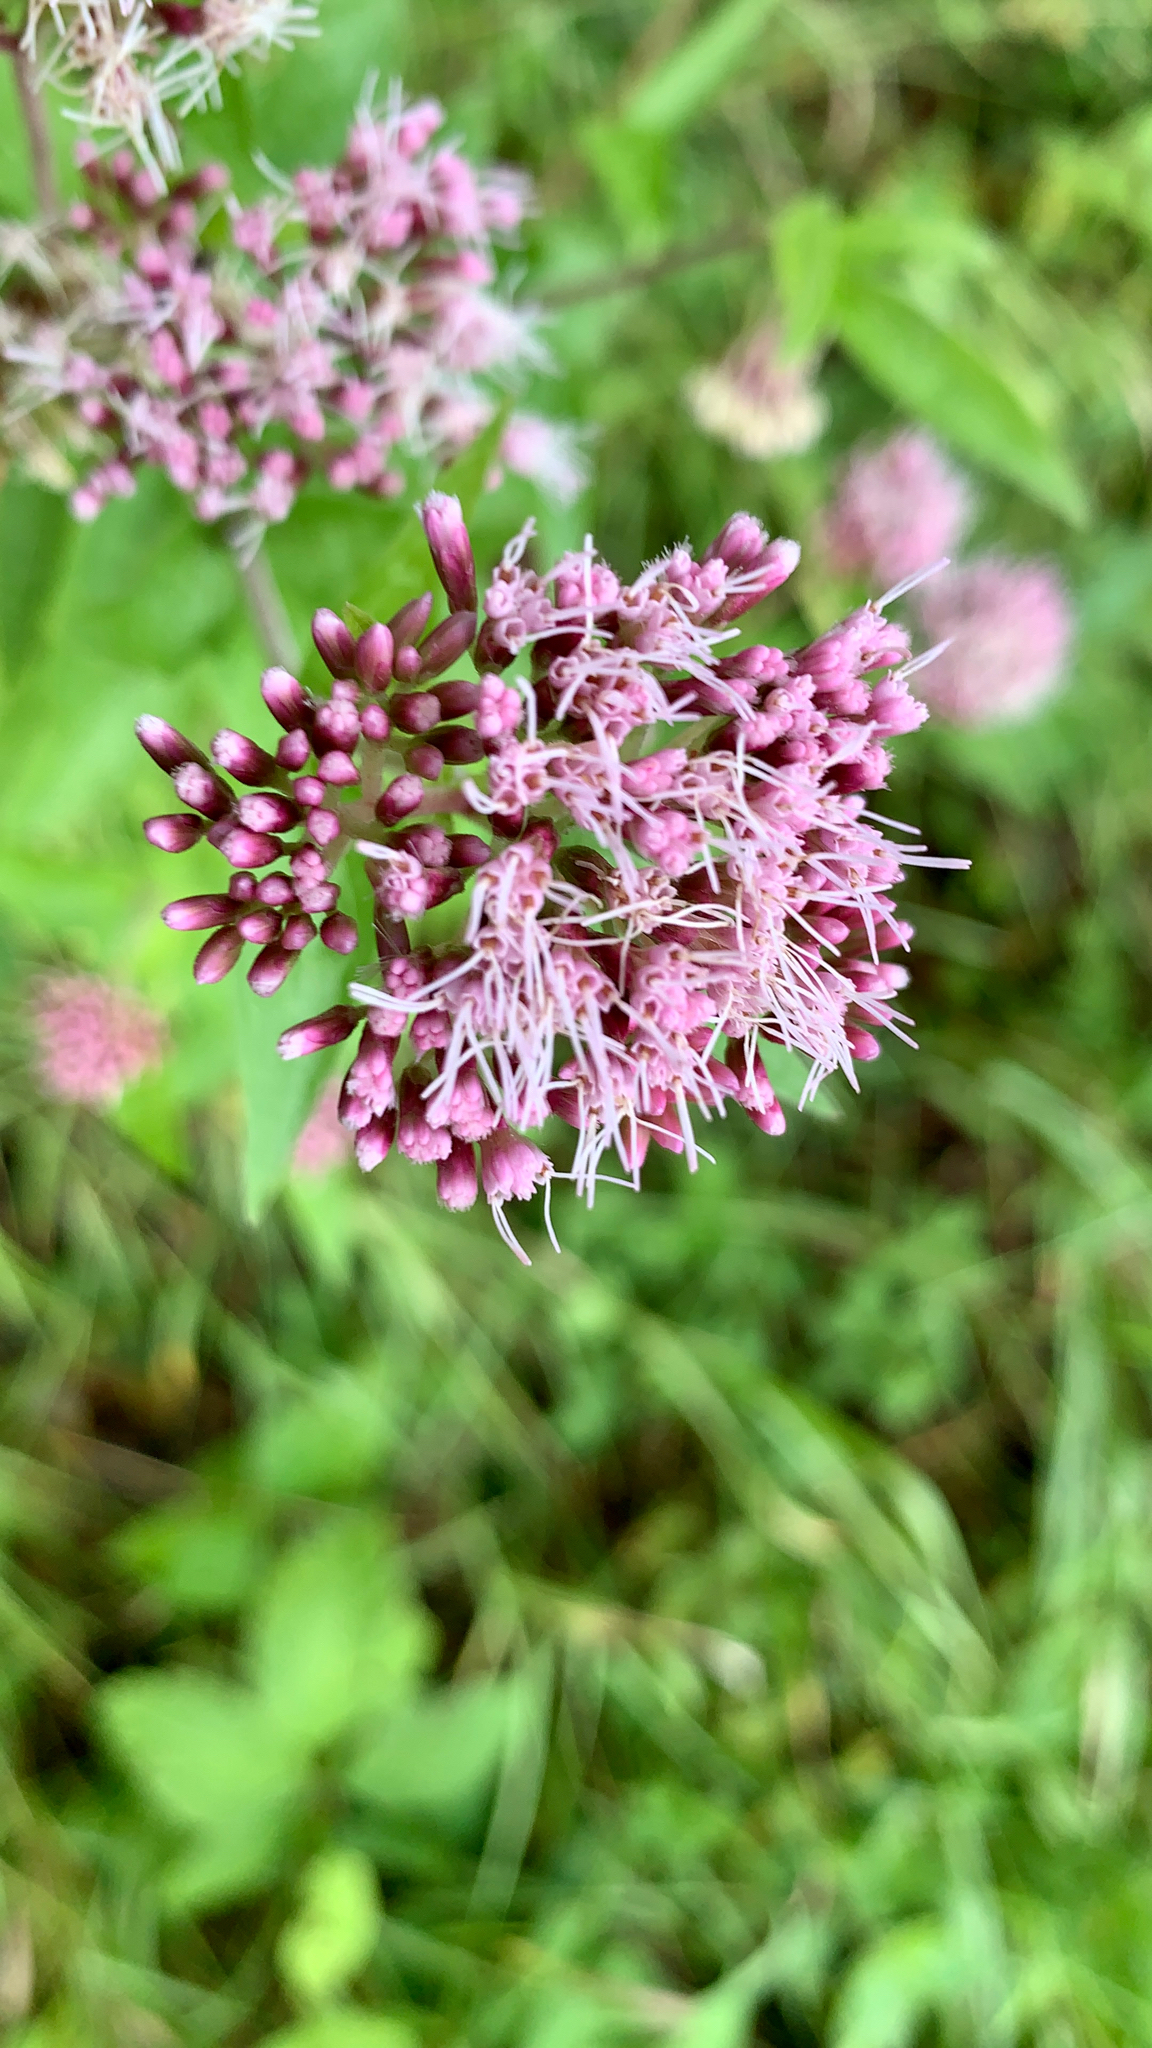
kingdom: Plantae
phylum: Tracheophyta
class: Magnoliopsida
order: Asterales
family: Asteraceae
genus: Eupatorium
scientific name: Eupatorium cannabinum
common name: Hemp-agrimony
